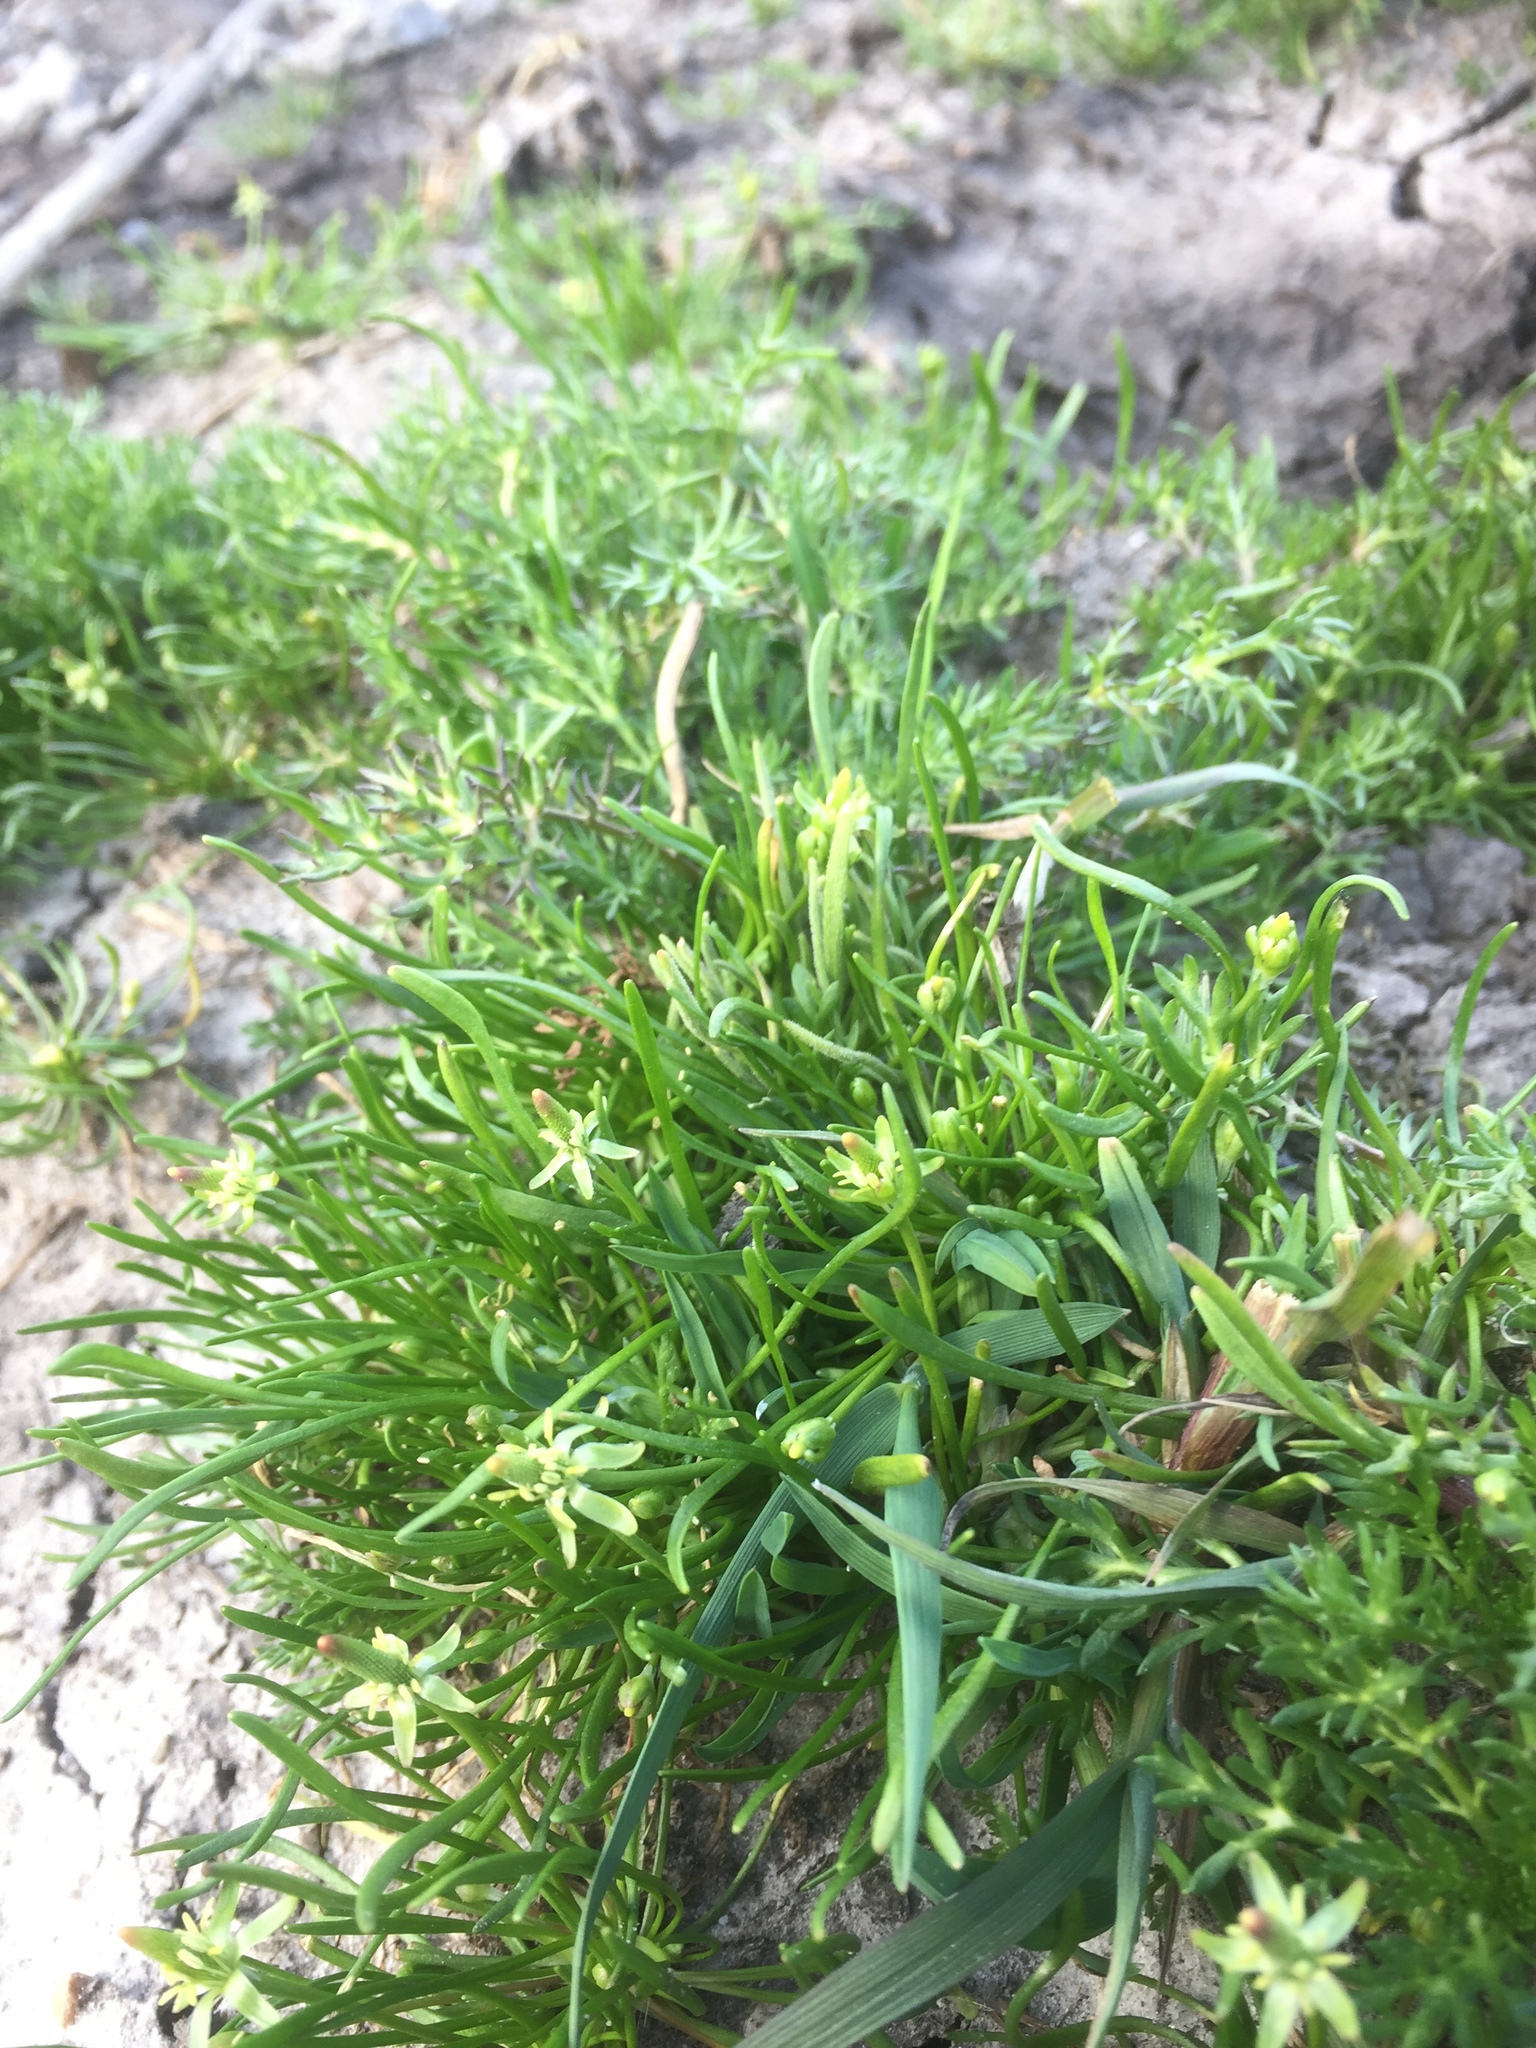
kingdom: Plantae
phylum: Tracheophyta
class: Magnoliopsida
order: Ranunculales
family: Ranunculaceae
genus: Myosurus
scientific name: Myosurus minimus
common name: Mousetail
